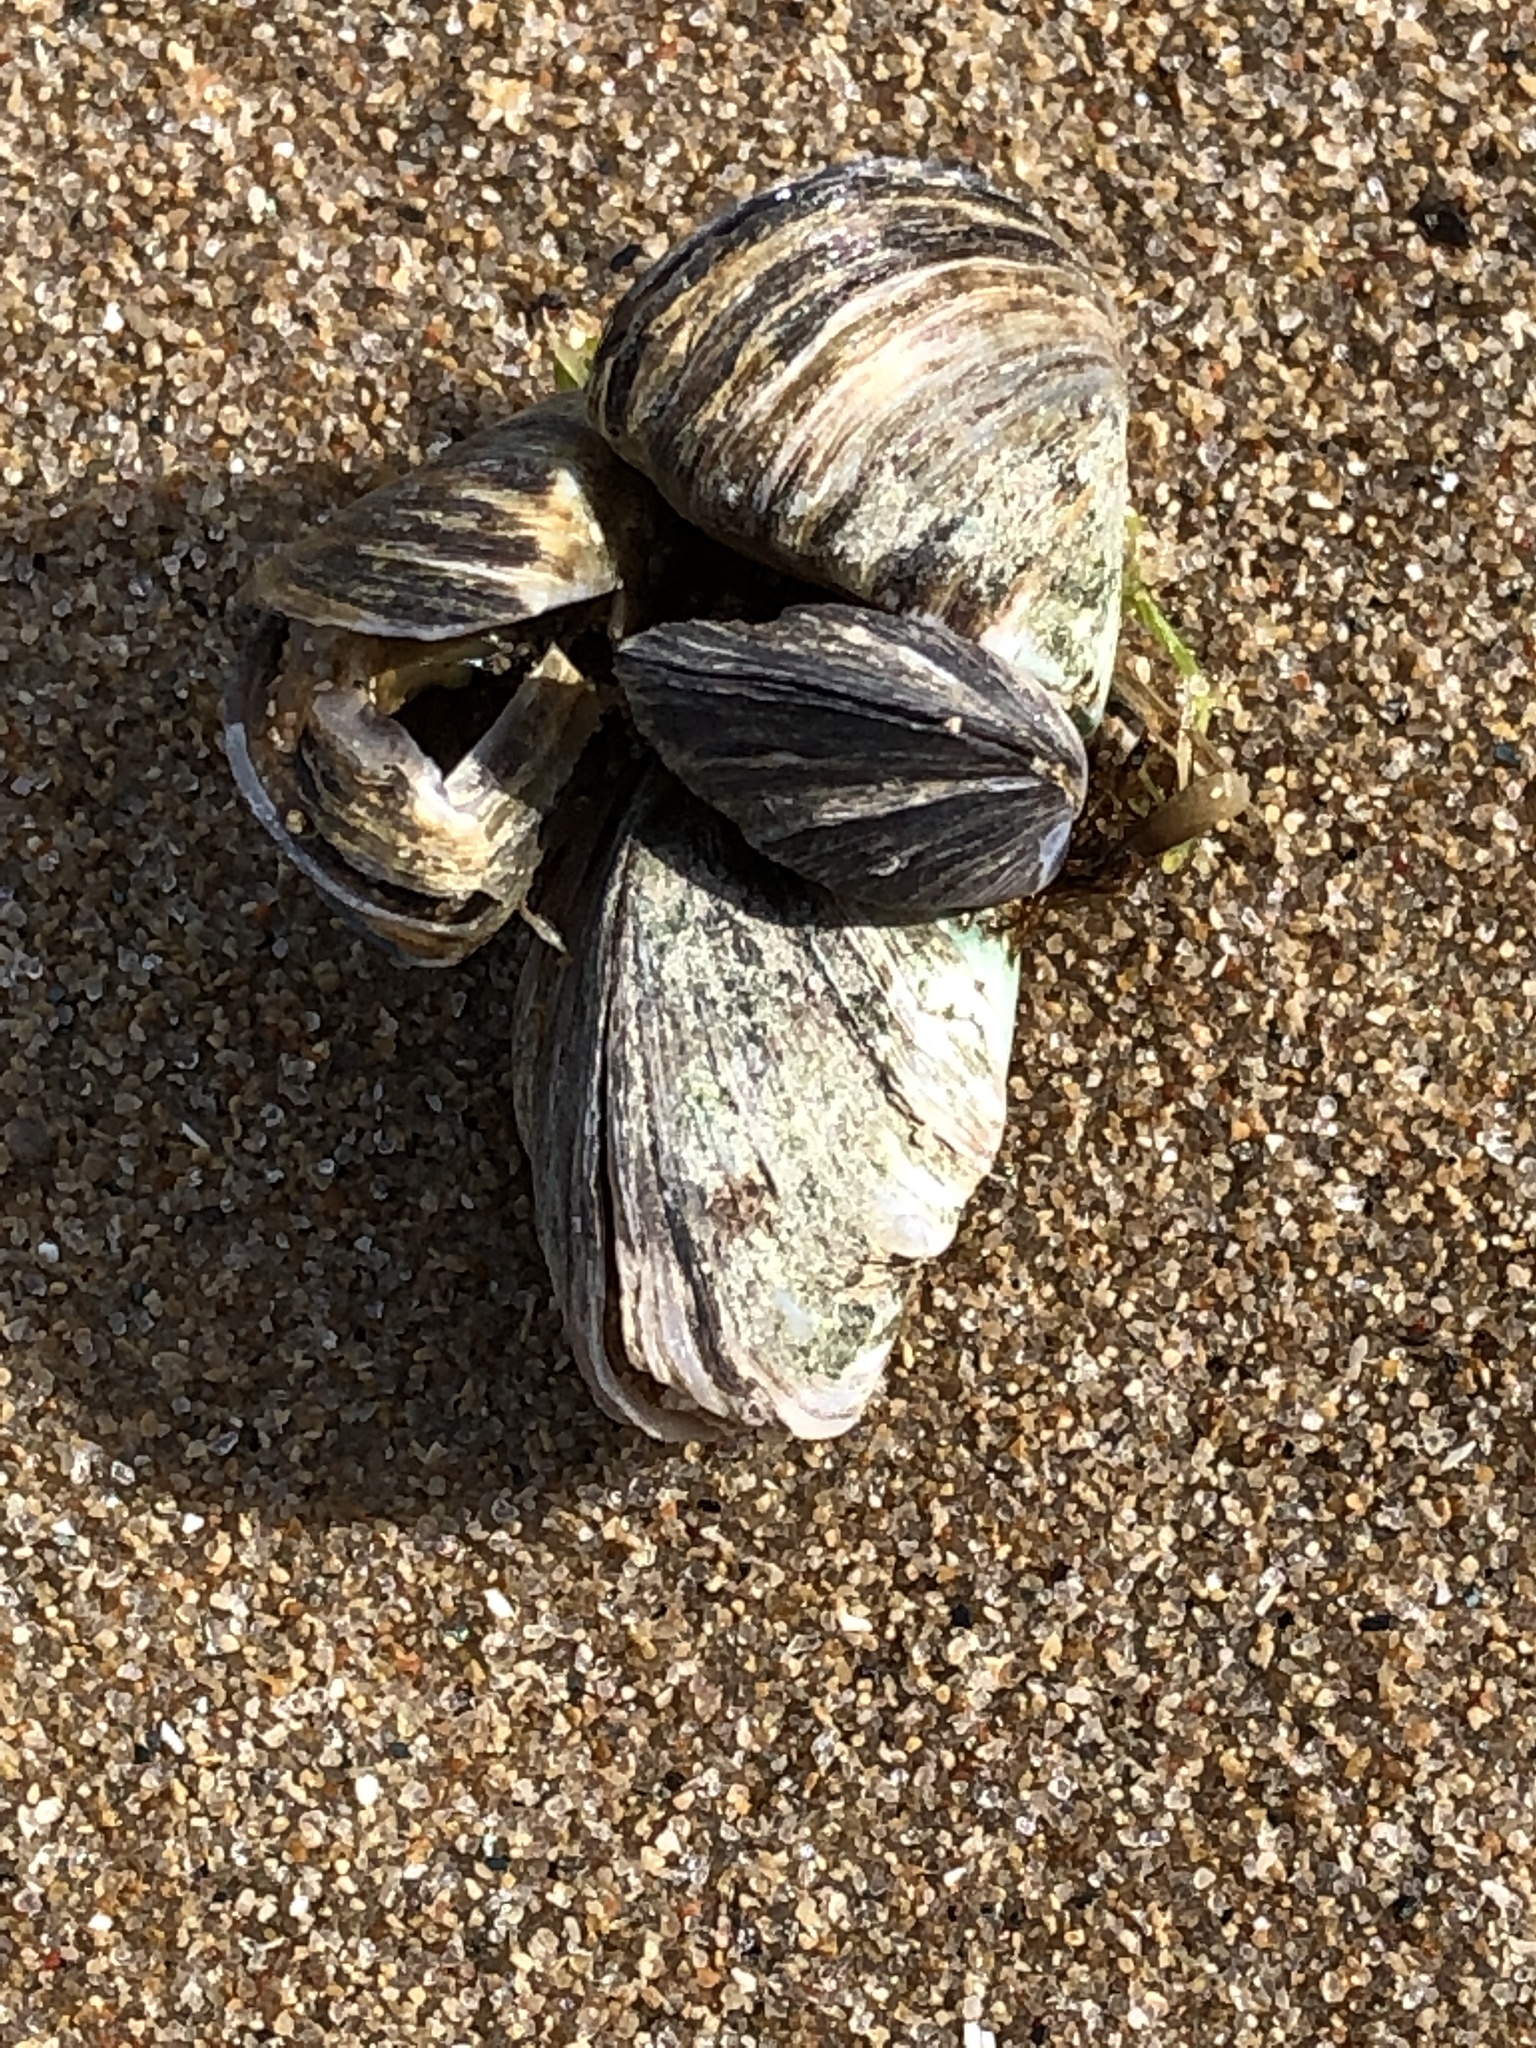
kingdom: Animalia
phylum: Mollusca
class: Bivalvia
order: Myida
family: Dreissenidae
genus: Dreissena
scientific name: Dreissena polymorpha
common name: Zebra mussel
